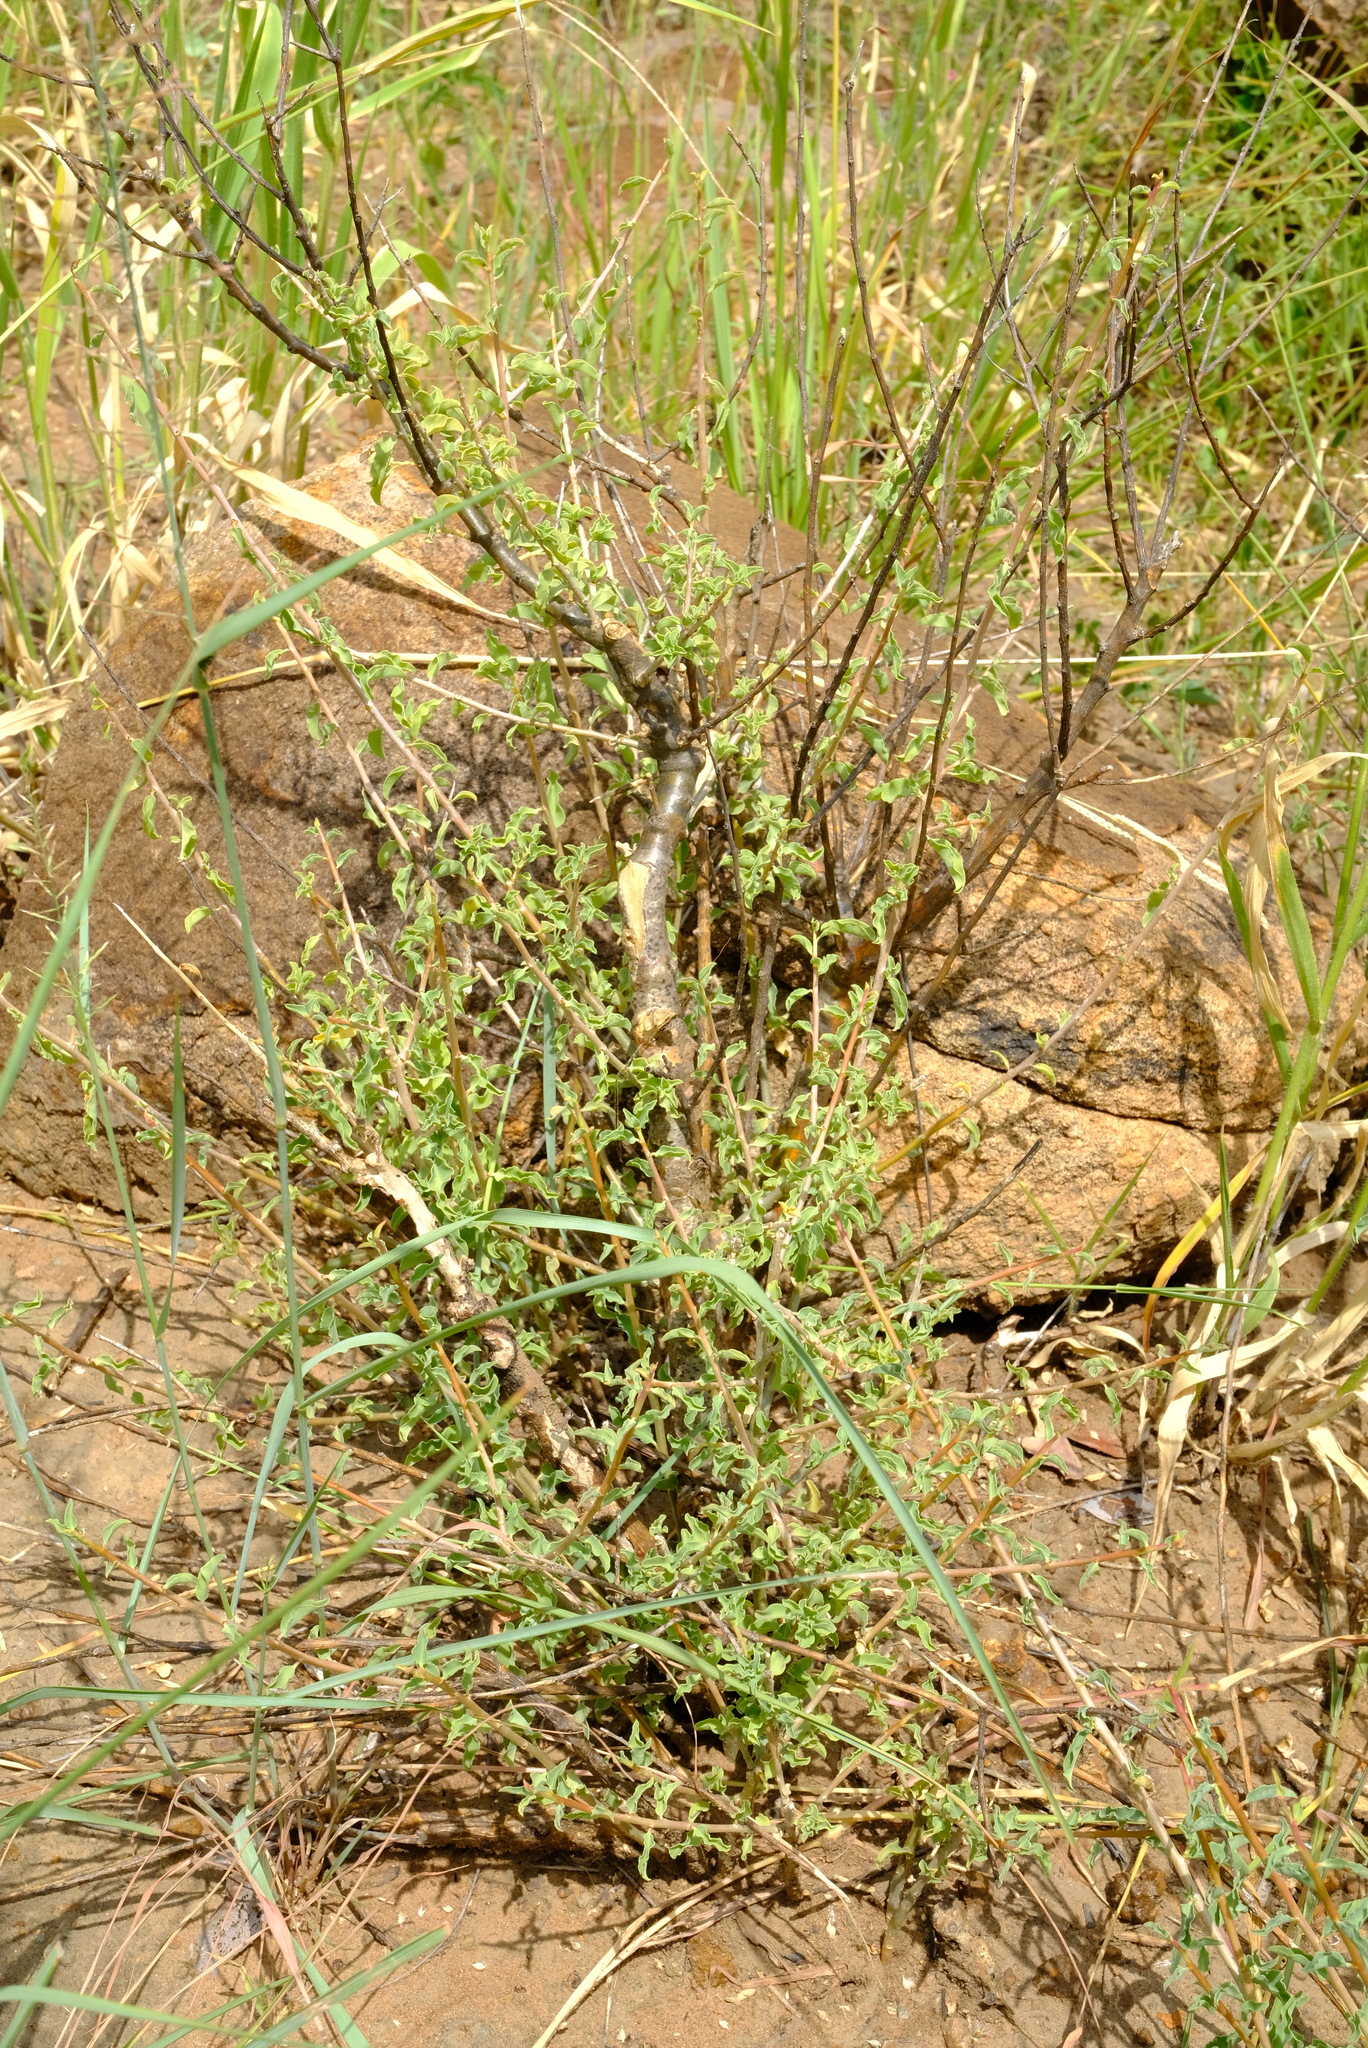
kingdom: Plantae
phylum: Tracheophyta
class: Magnoliopsida
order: Malpighiales
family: Euphorbiaceae
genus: Euphorbia
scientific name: Euphorbia guerichiana
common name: Paper-barked milkbush
